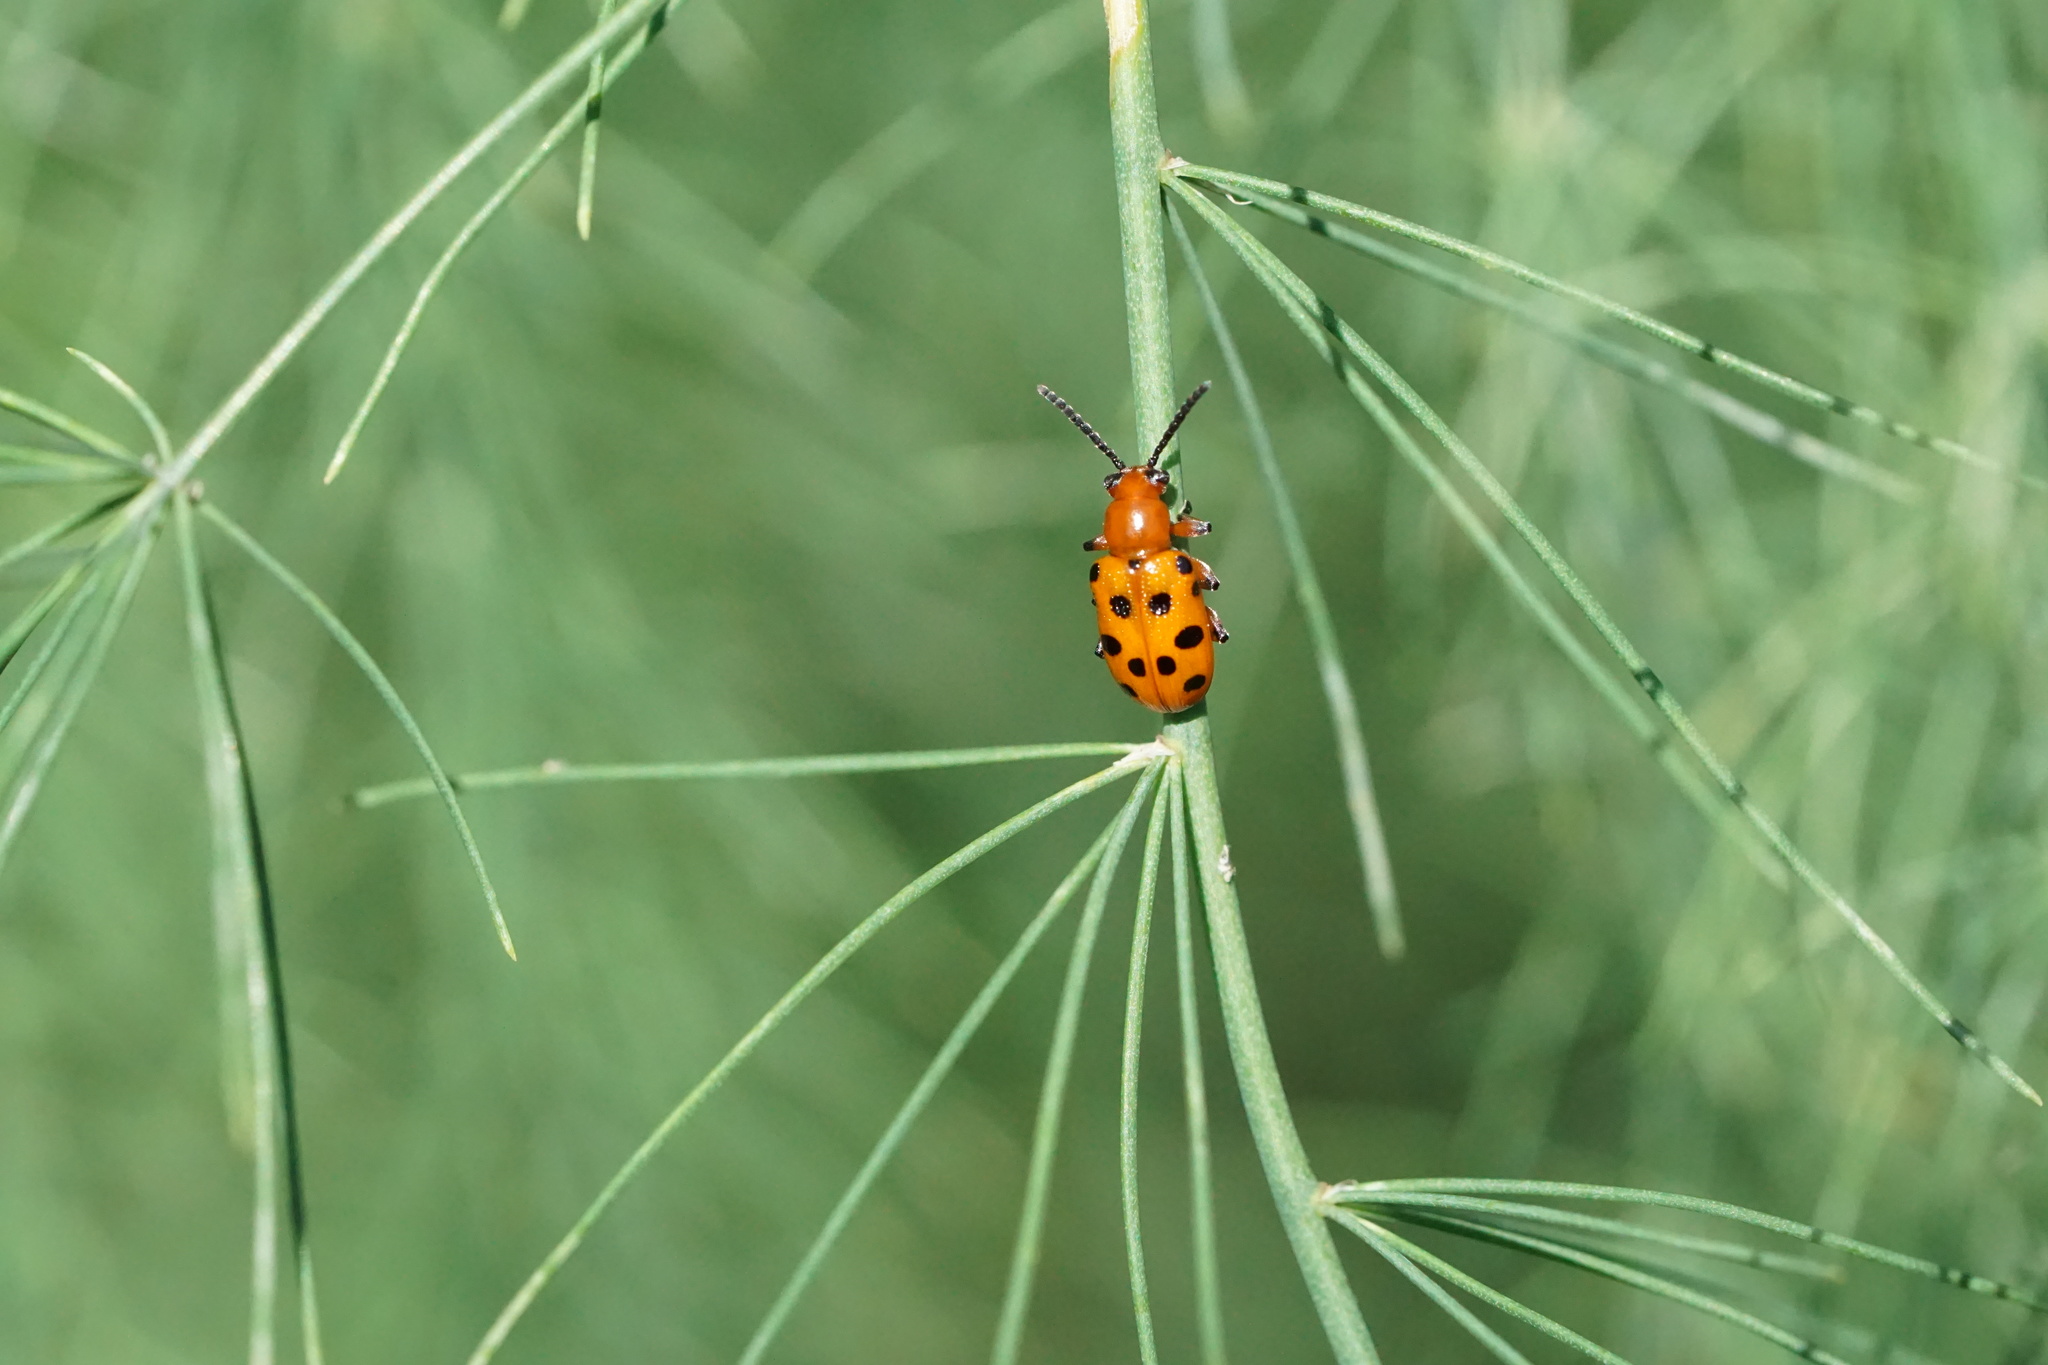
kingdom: Animalia
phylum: Arthropoda
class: Insecta
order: Coleoptera
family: Chrysomelidae
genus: Crioceris
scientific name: Crioceris duodecimpunctata
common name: Twelve-spotted asparagus beetle
